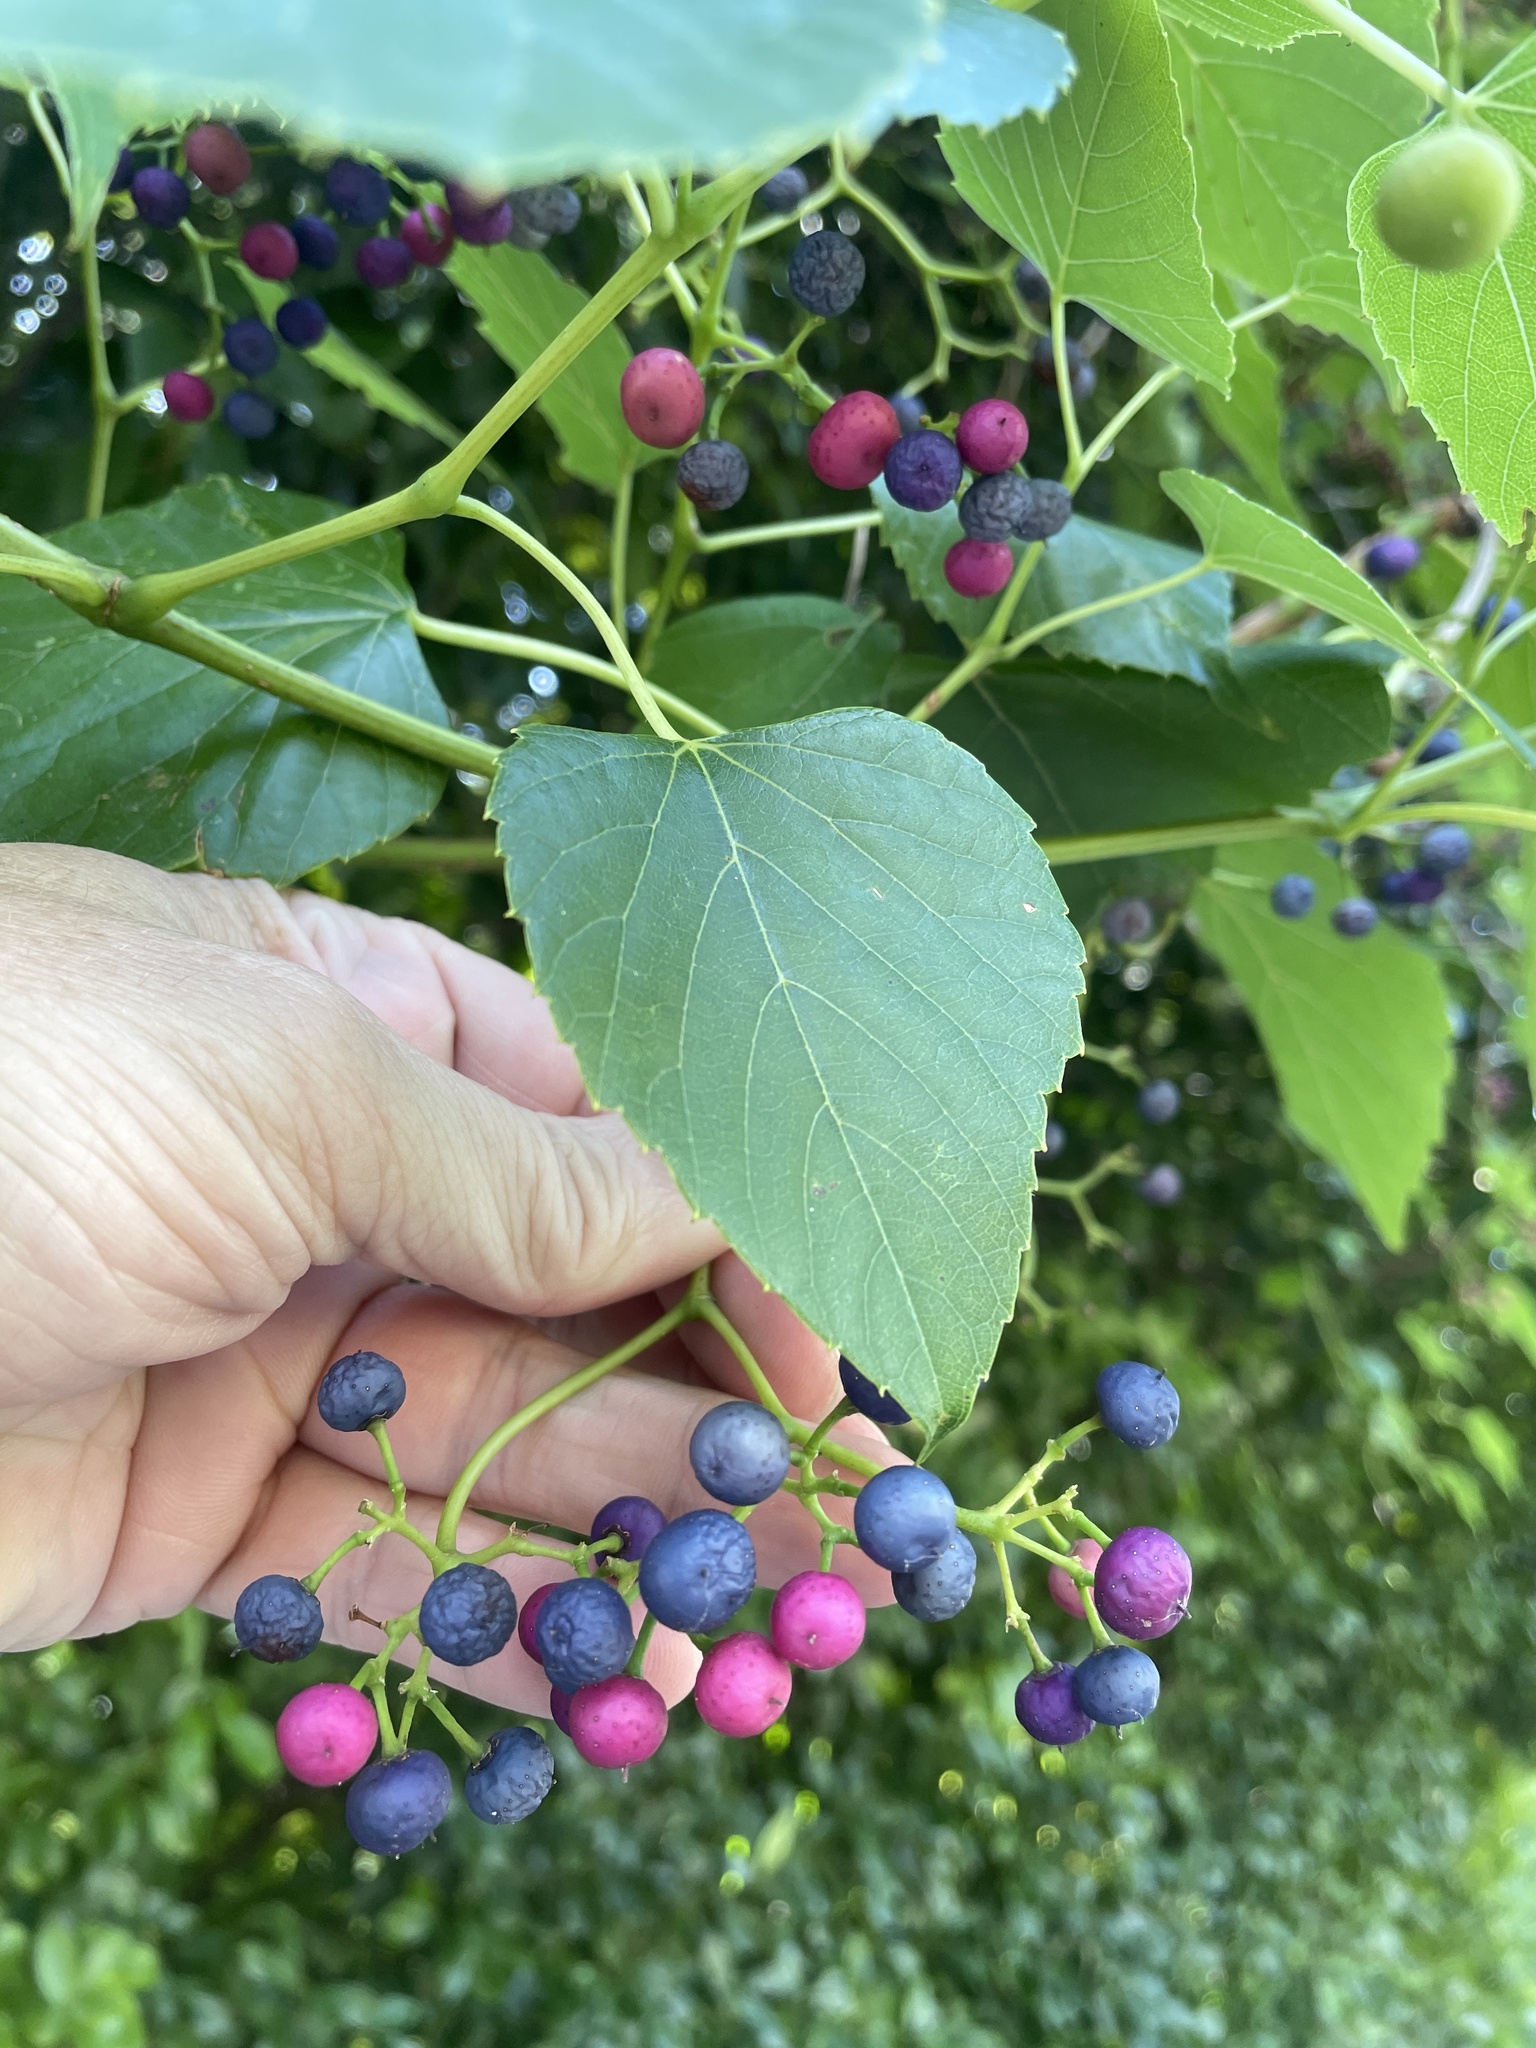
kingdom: Plantae
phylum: Tracheophyta
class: Magnoliopsida
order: Vitales
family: Vitaceae
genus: Ampelopsis
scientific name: Ampelopsis cordata
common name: Heart-leaf ampelopsis
